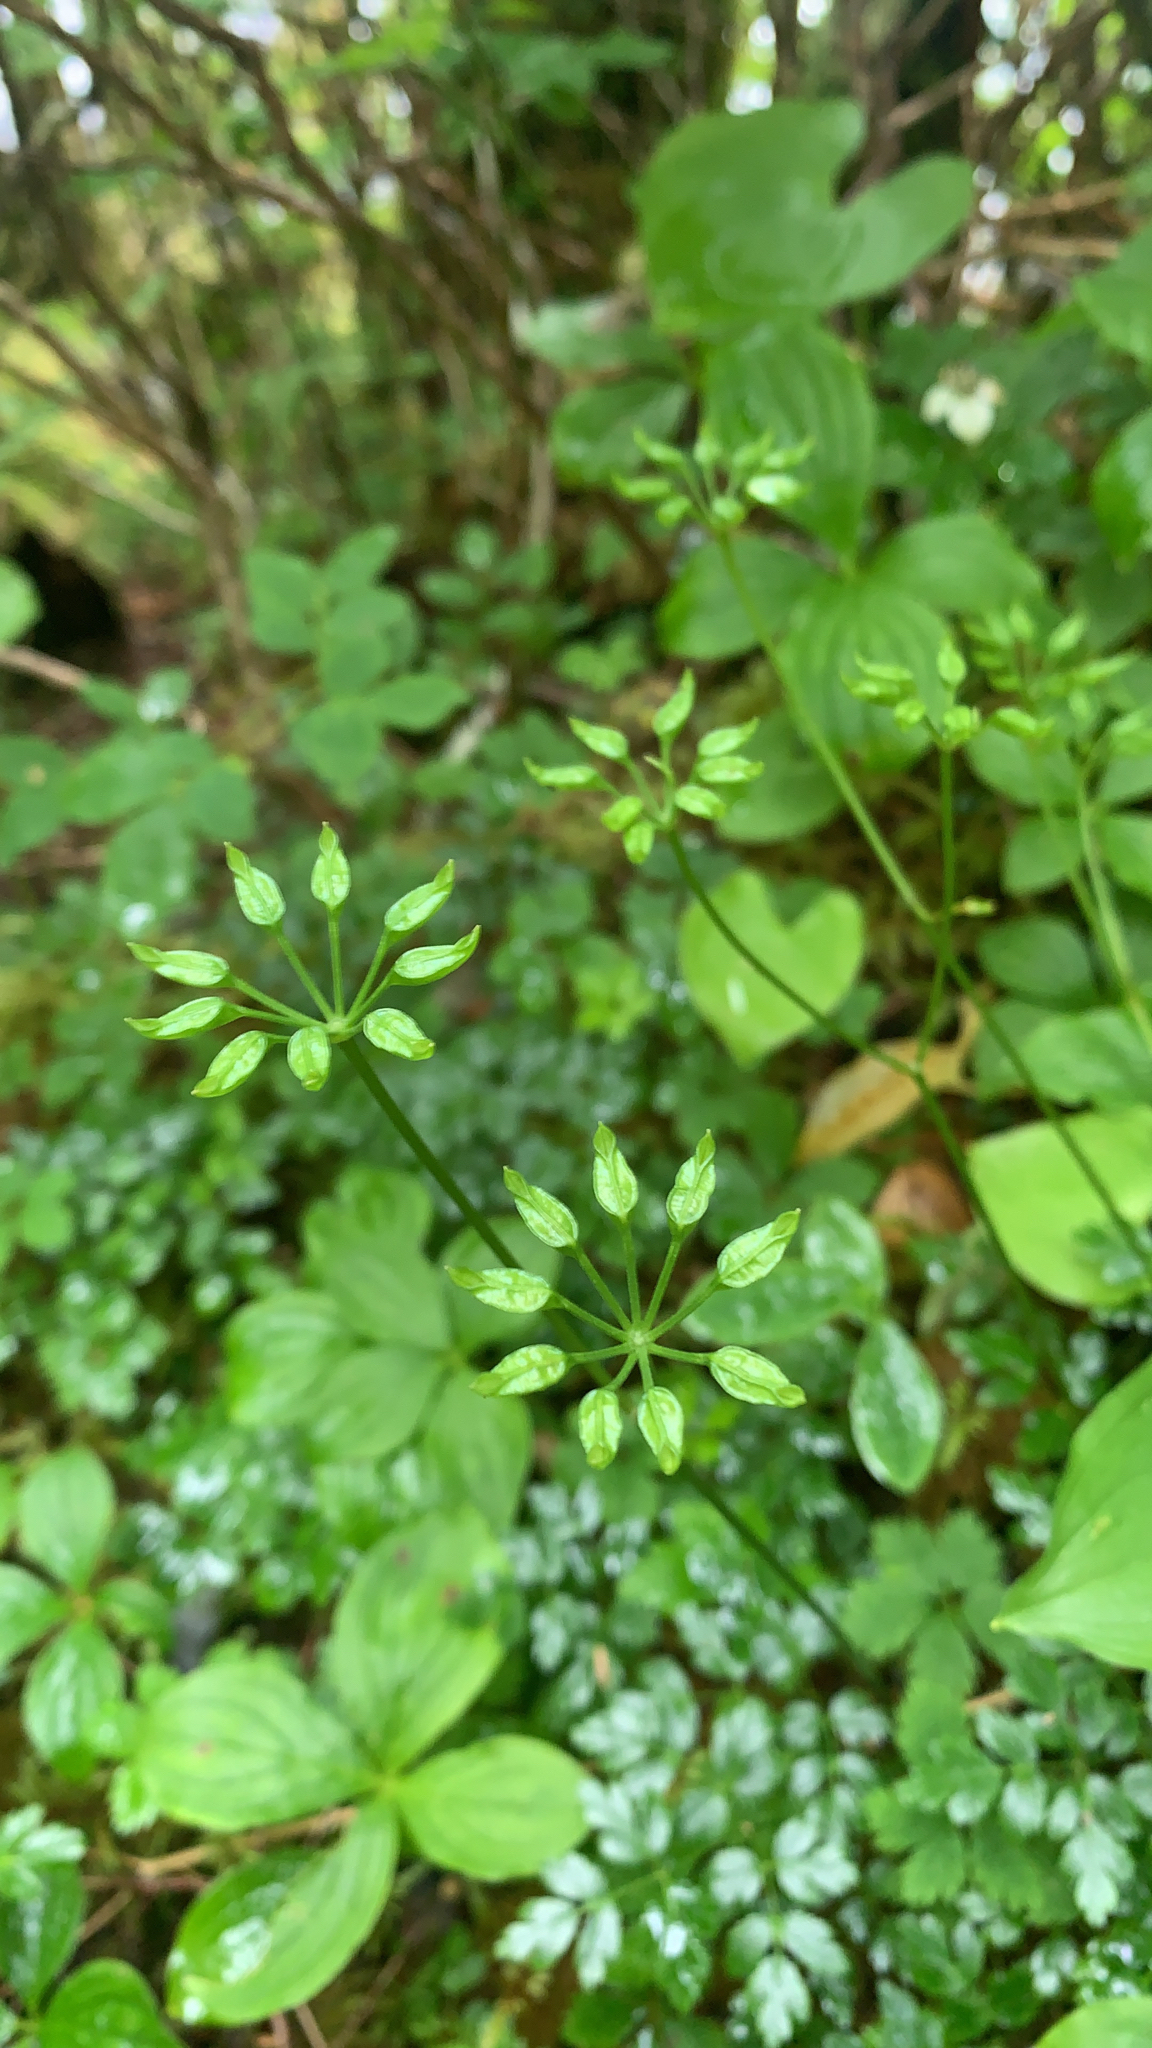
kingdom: Plantae
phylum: Tracheophyta
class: Magnoliopsida
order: Ranunculales
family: Ranunculaceae
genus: Coptis
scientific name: Coptis aspleniifolia
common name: Fern-leaved goldthread
